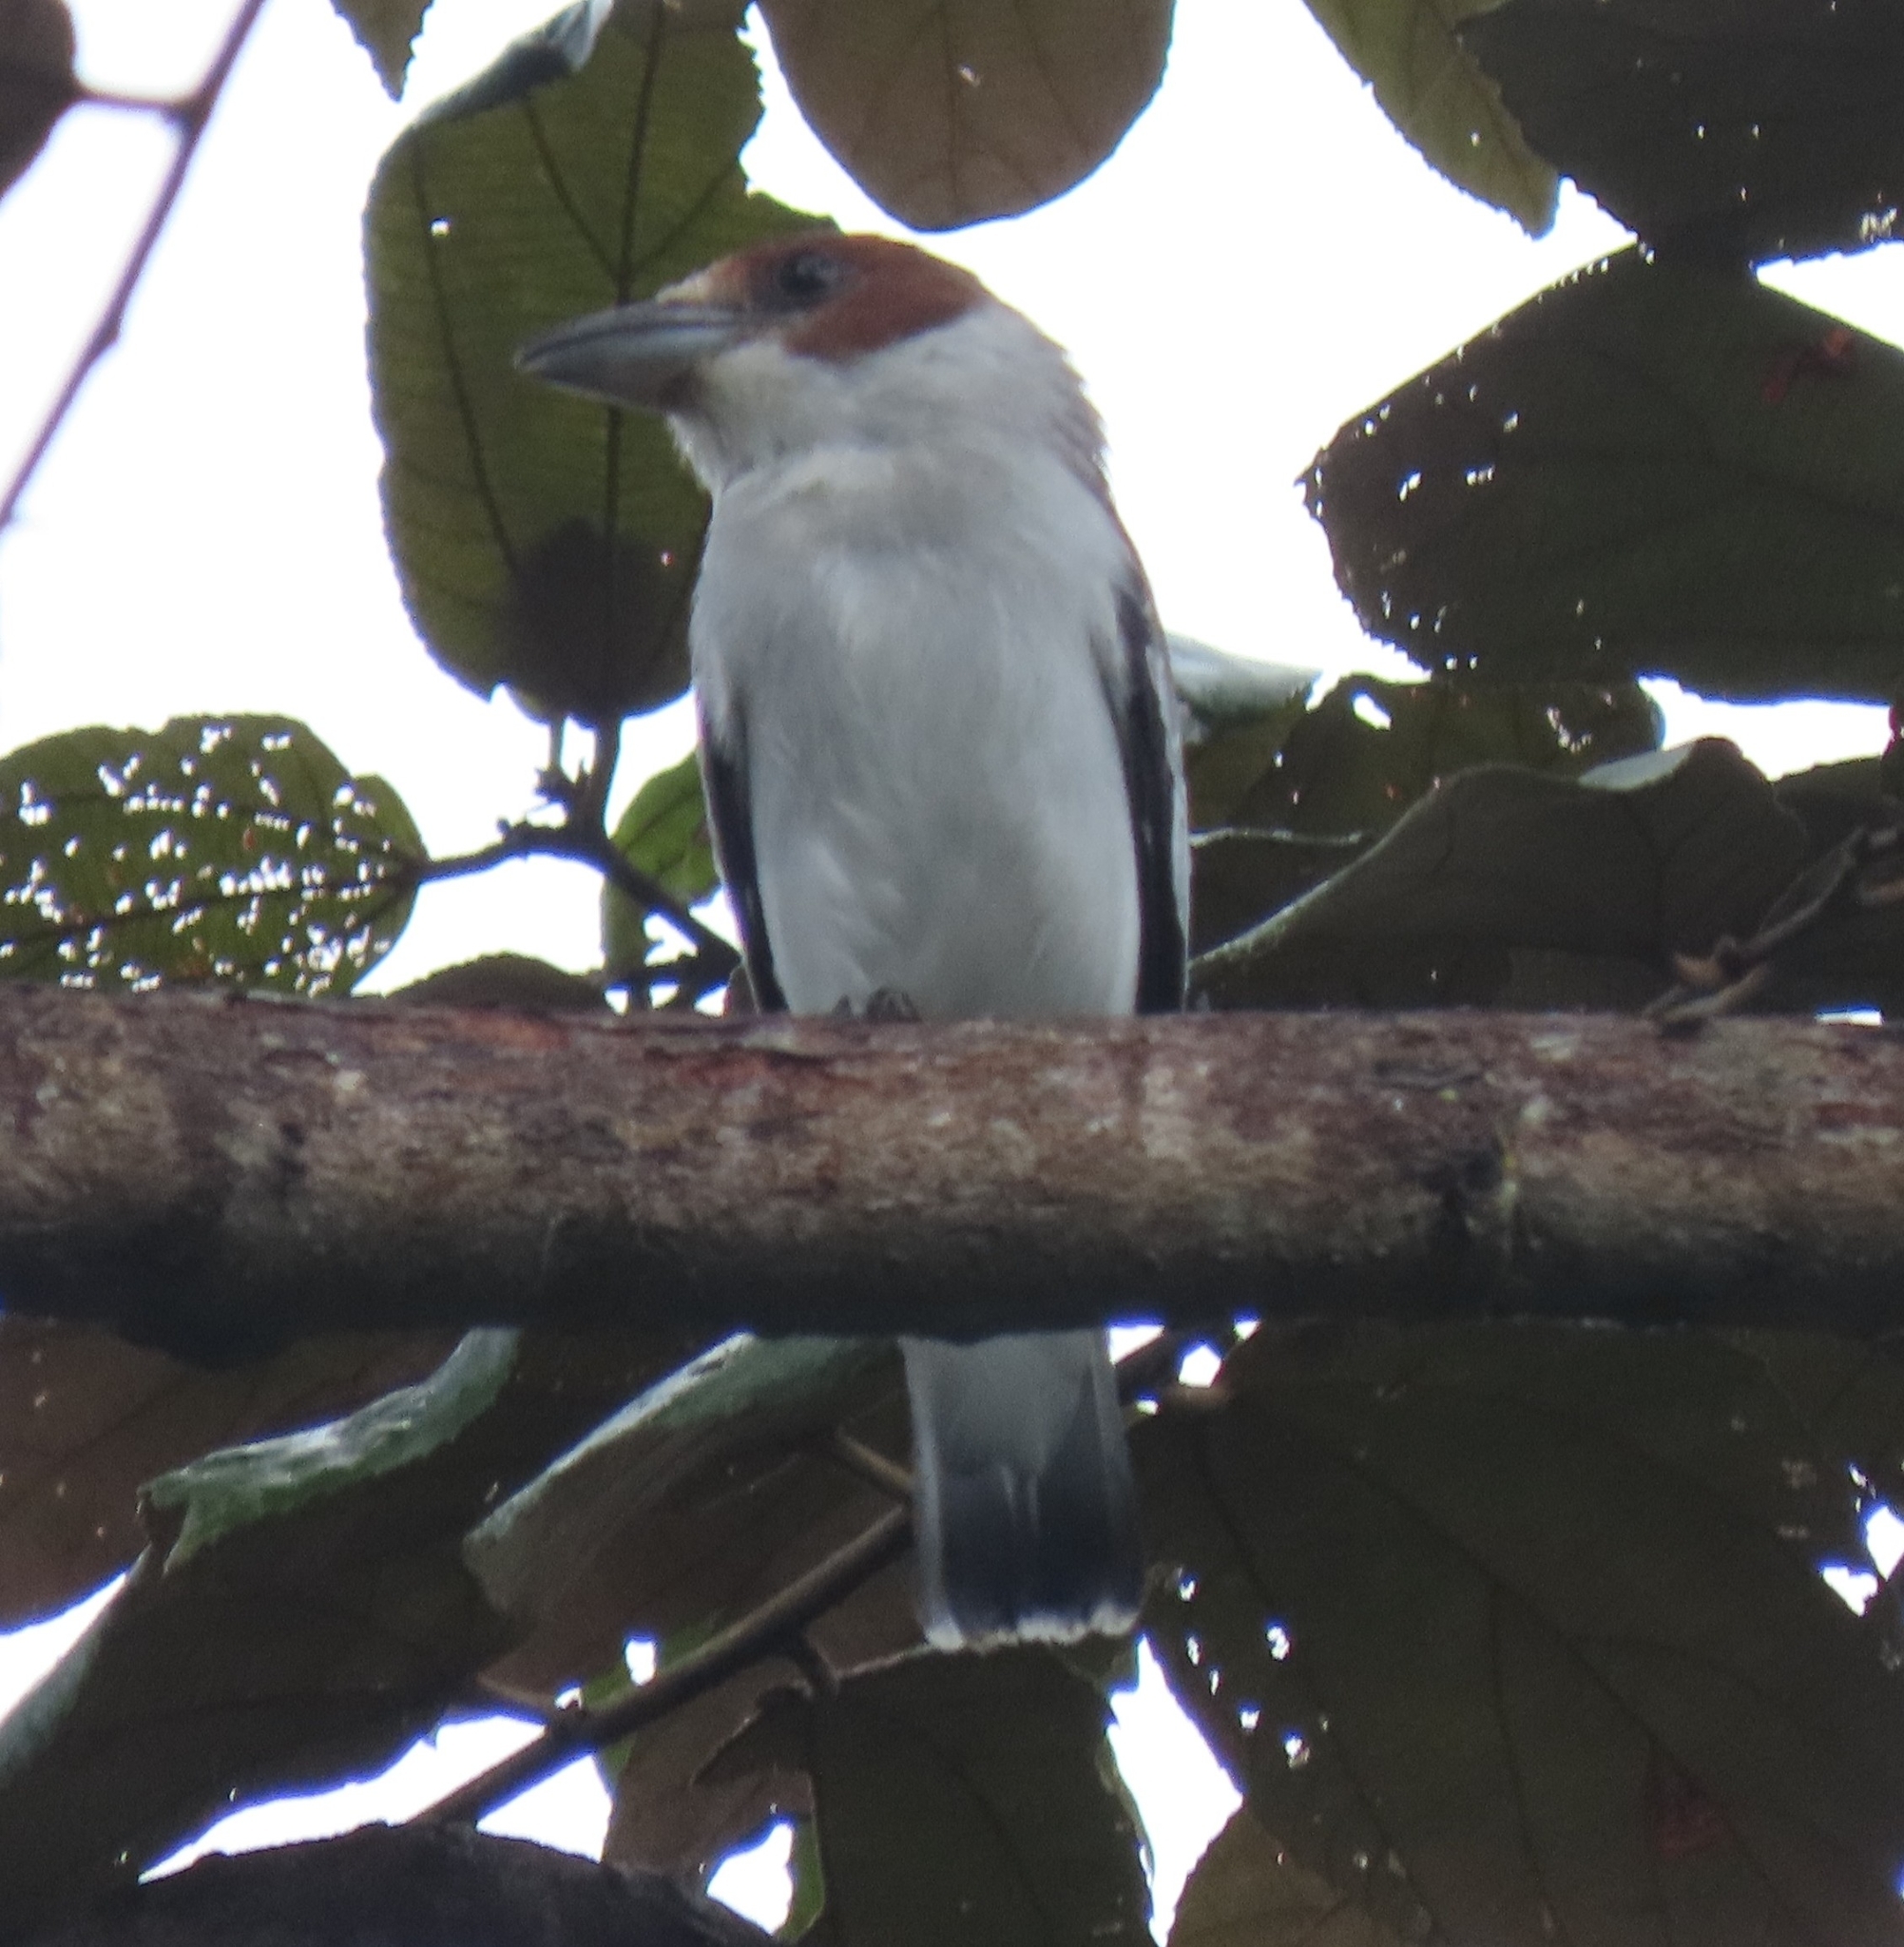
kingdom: Animalia
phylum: Chordata
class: Aves
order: Passeriformes
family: Cotingidae
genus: Tityra
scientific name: Tityra inquisitor
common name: Black-crowned tityra
